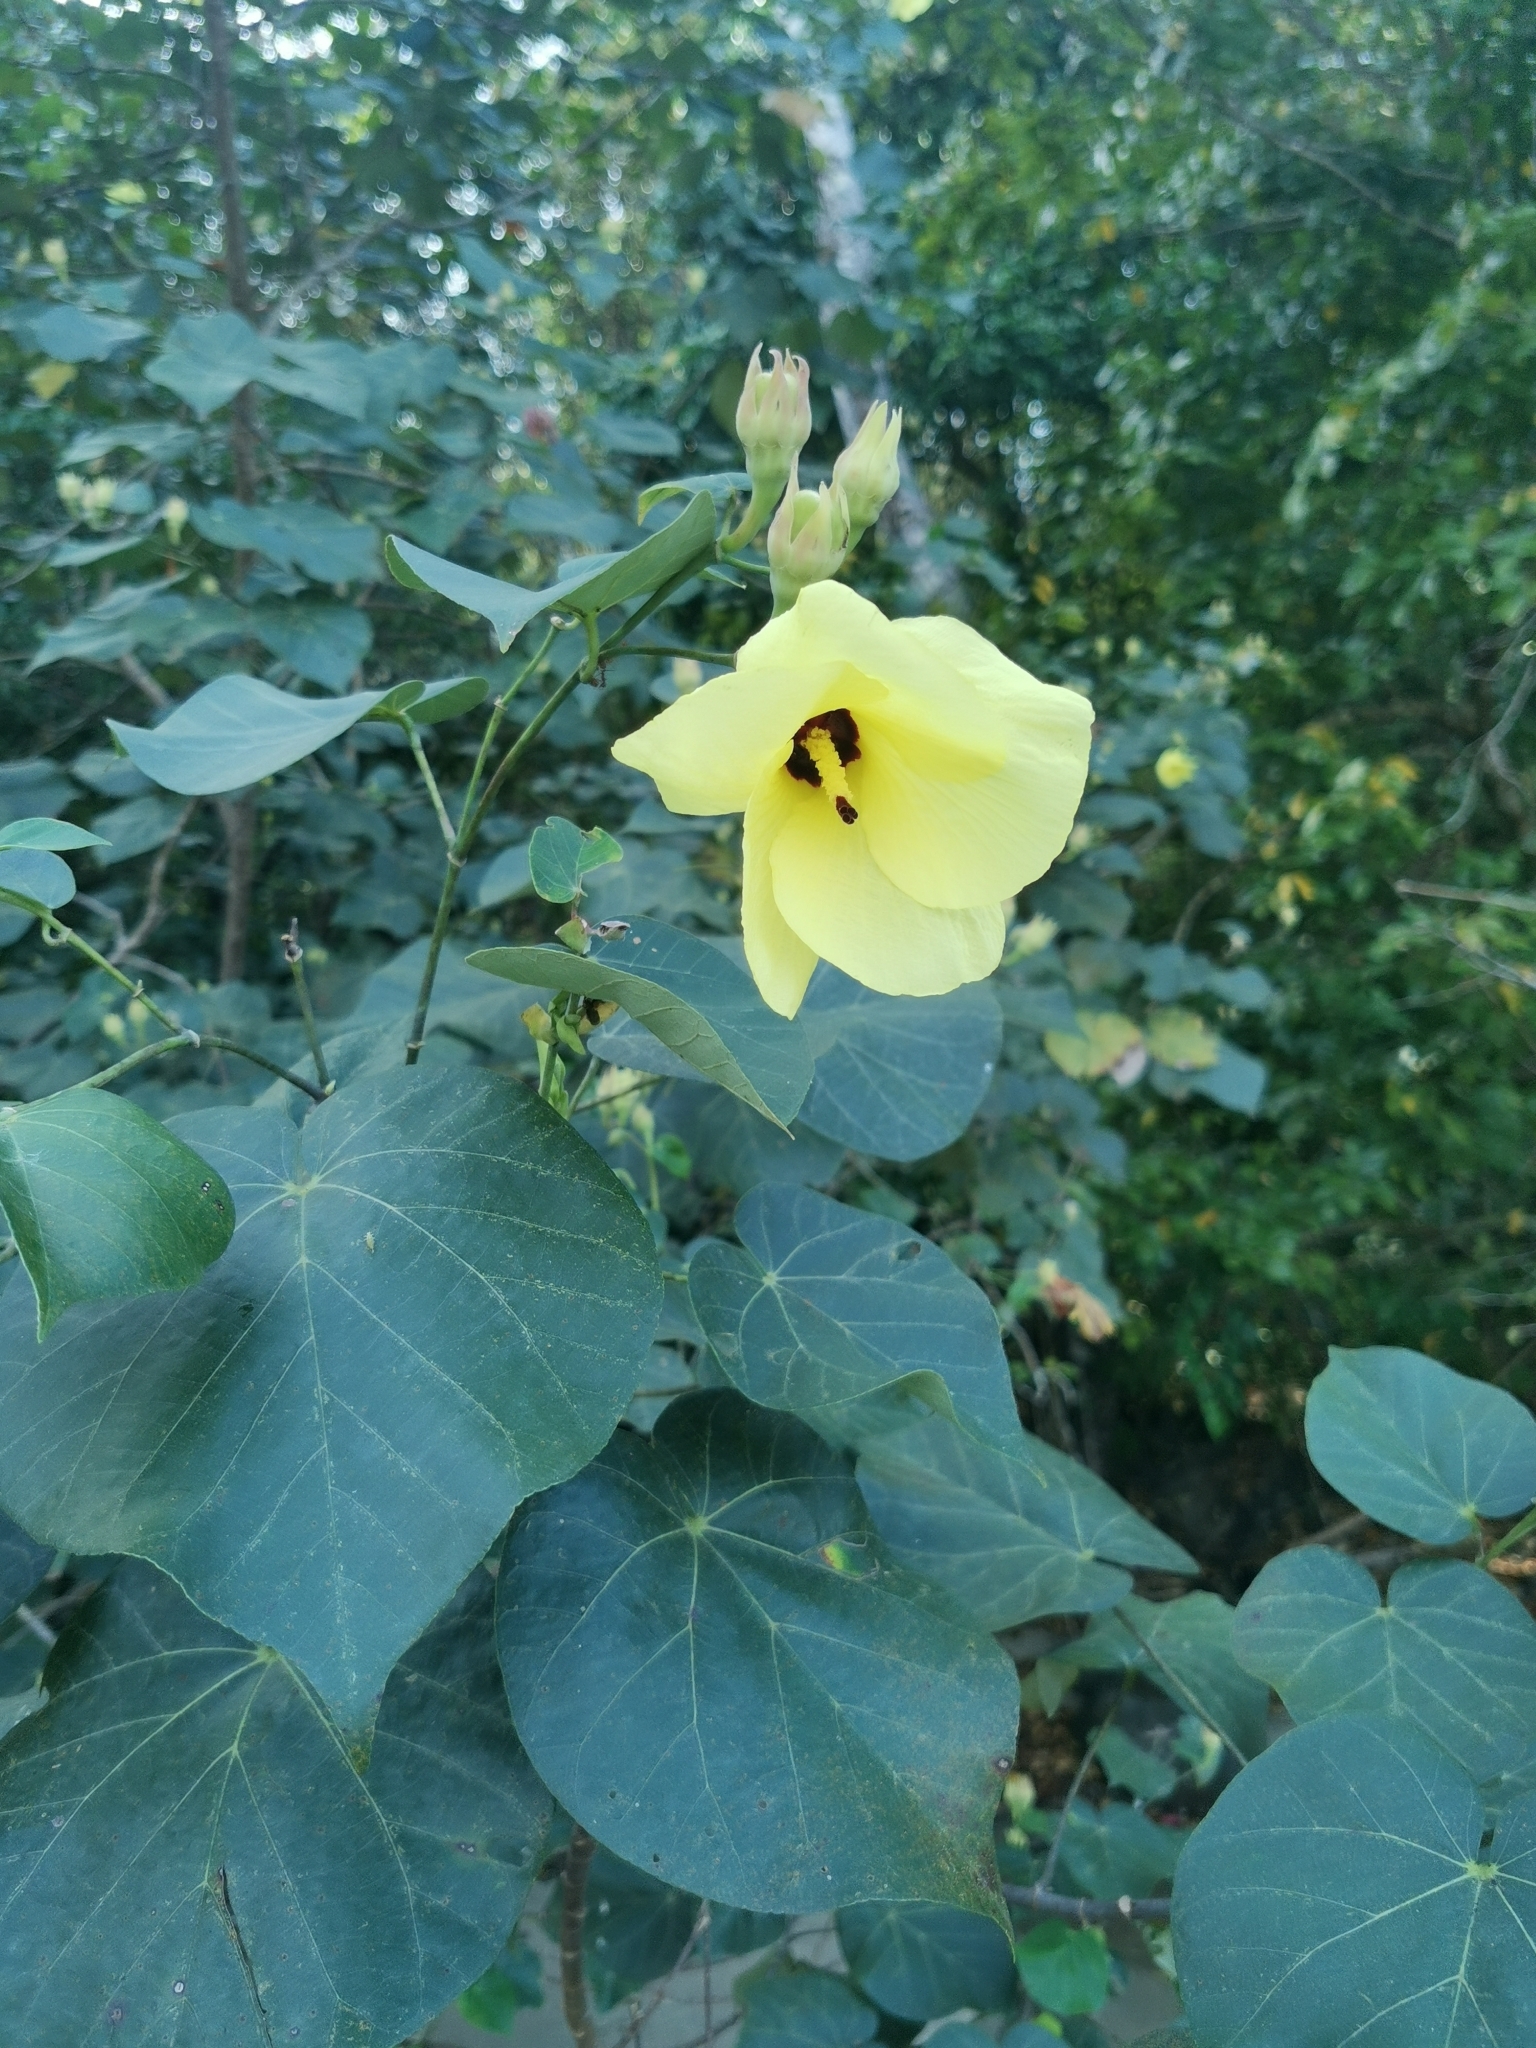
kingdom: Plantae
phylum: Tracheophyta
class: Magnoliopsida
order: Malvales
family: Malvaceae
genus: Talipariti
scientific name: Talipariti tiliaceum
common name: Sea hibiscus
